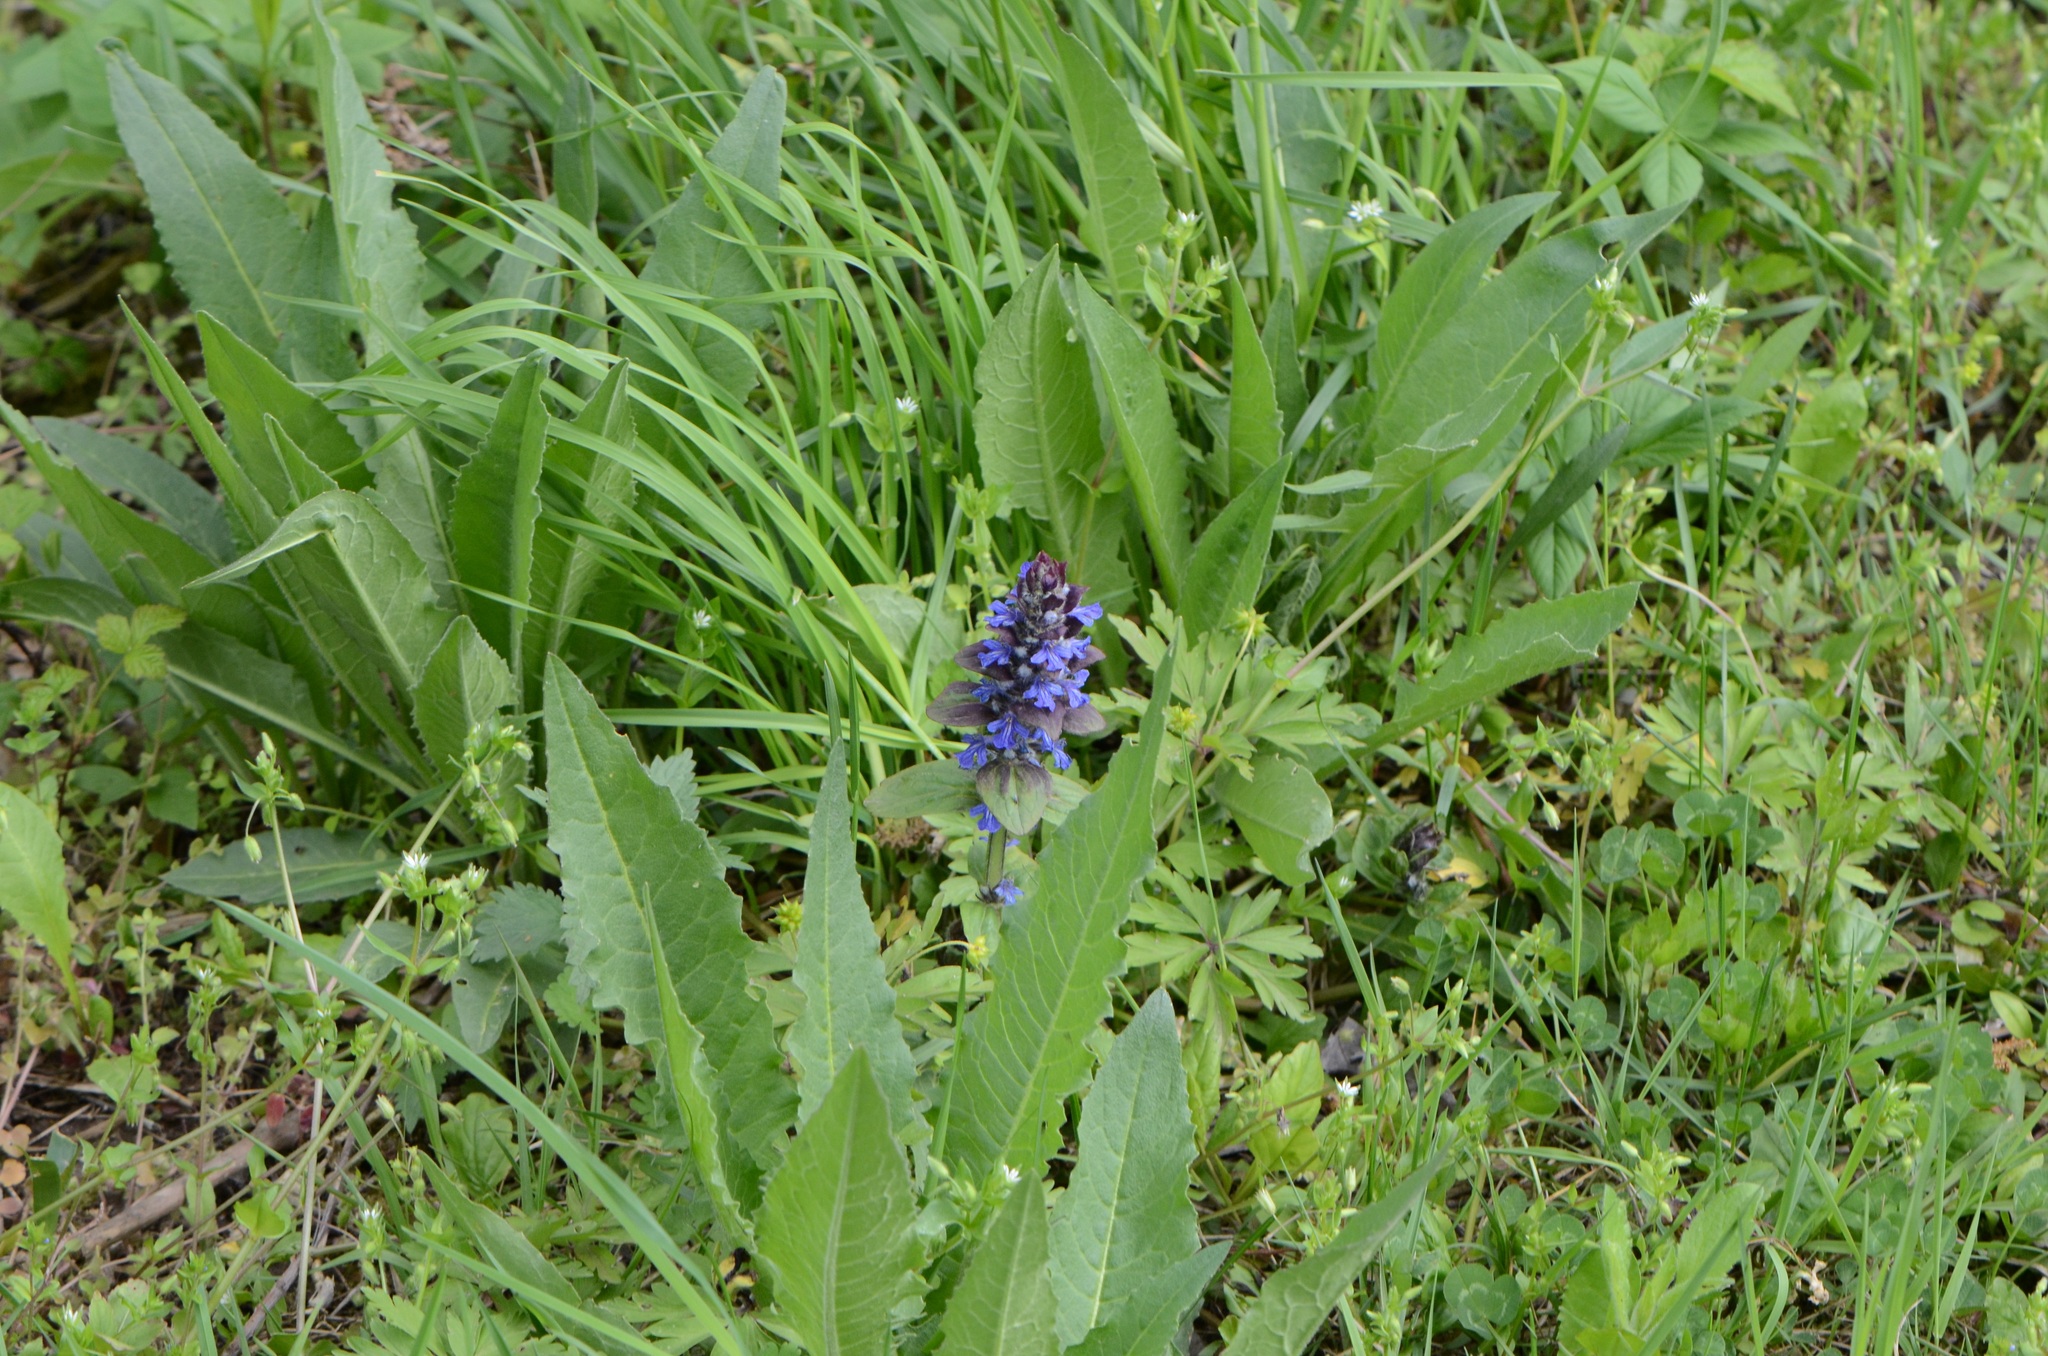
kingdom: Plantae
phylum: Tracheophyta
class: Magnoliopsida
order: Lamiales
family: Lamiaceae
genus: Ajuga
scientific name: Ajuga reptans
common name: Bugle
